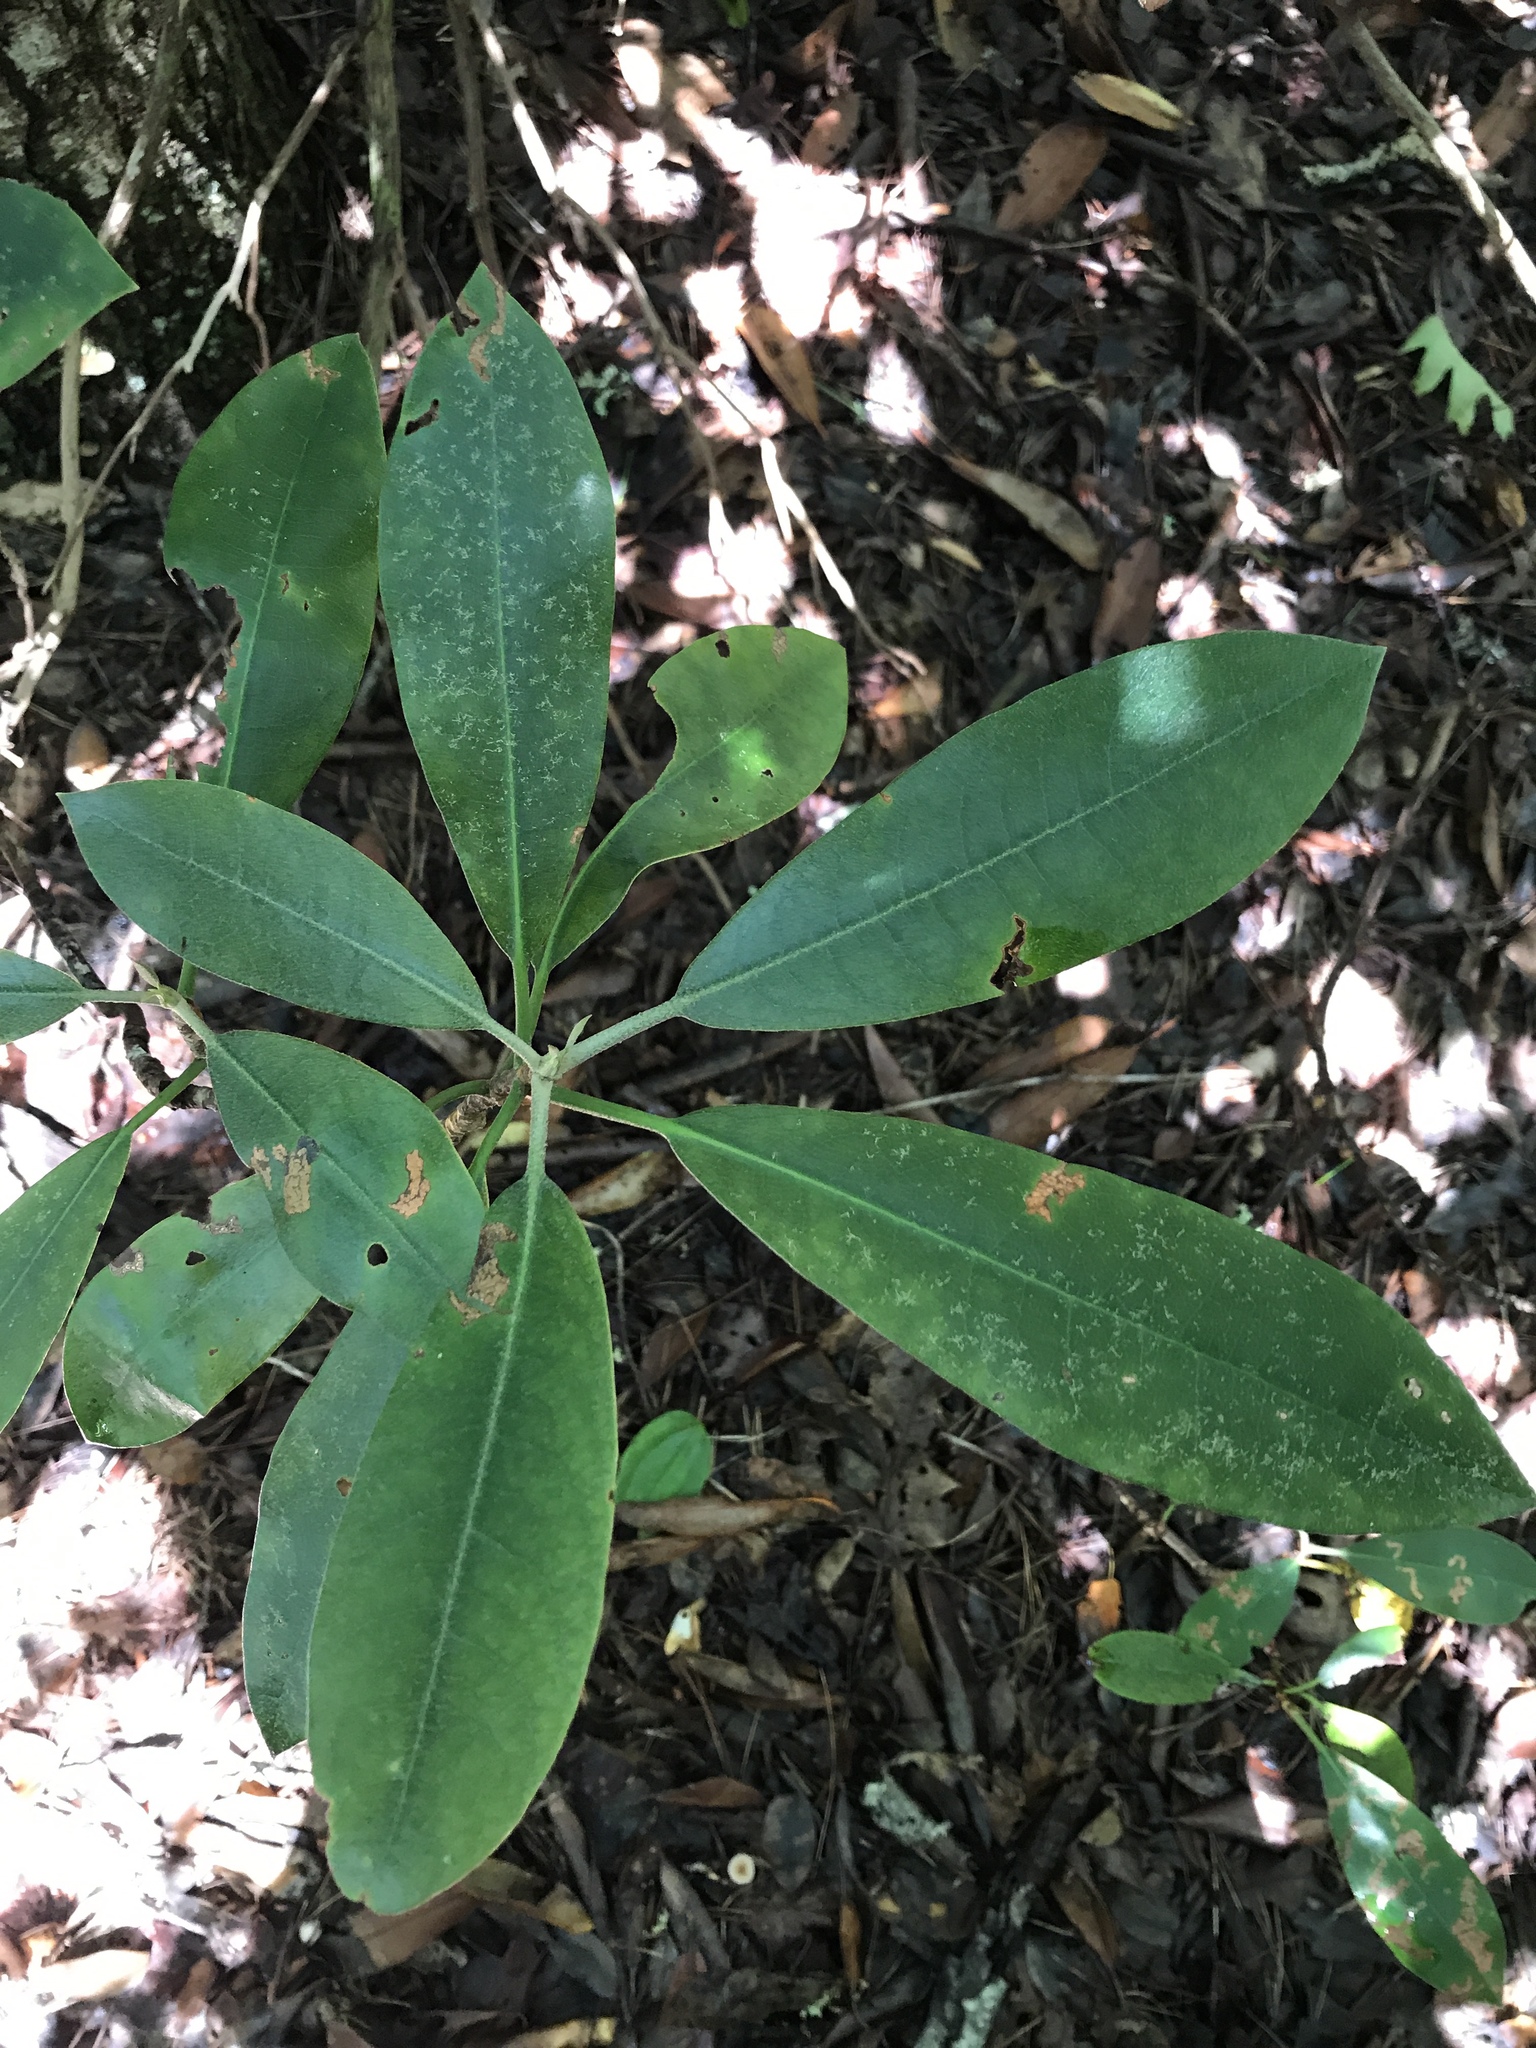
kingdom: Plantae
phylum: Tracheophyta
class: Magnoliopsida
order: Ericales
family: Ericaceae
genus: Rhododendron
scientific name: Rhododendron maximum
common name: Great rhododendron
